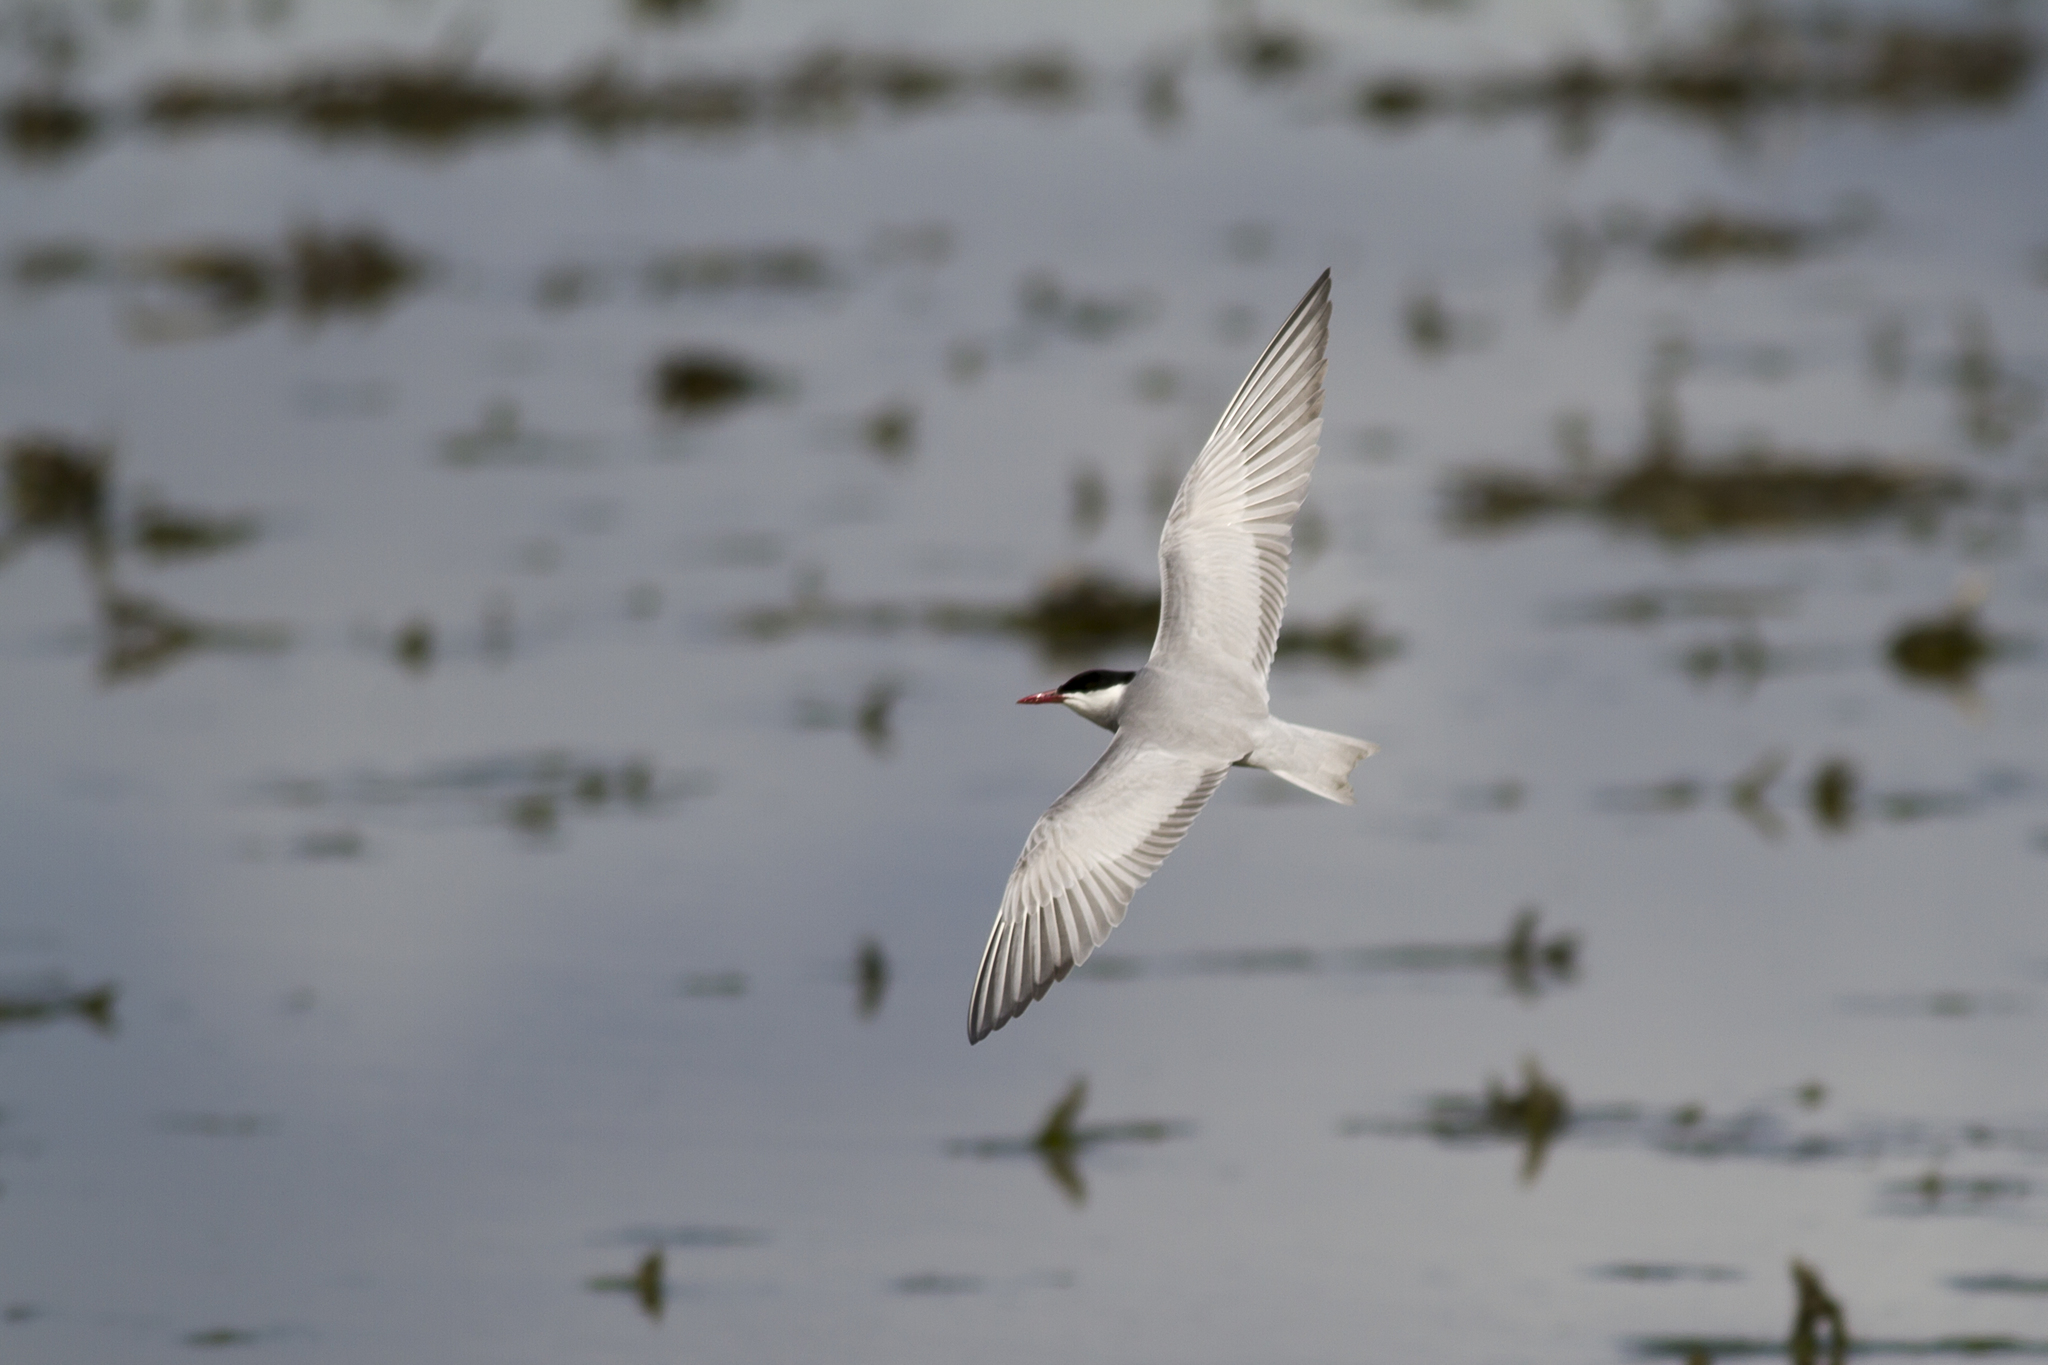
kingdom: Animalia
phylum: Chordata
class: Aves
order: Charadriiformes
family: Laridae
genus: Chlidonias
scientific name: Chlidonias hybrida
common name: Whiskered tern
